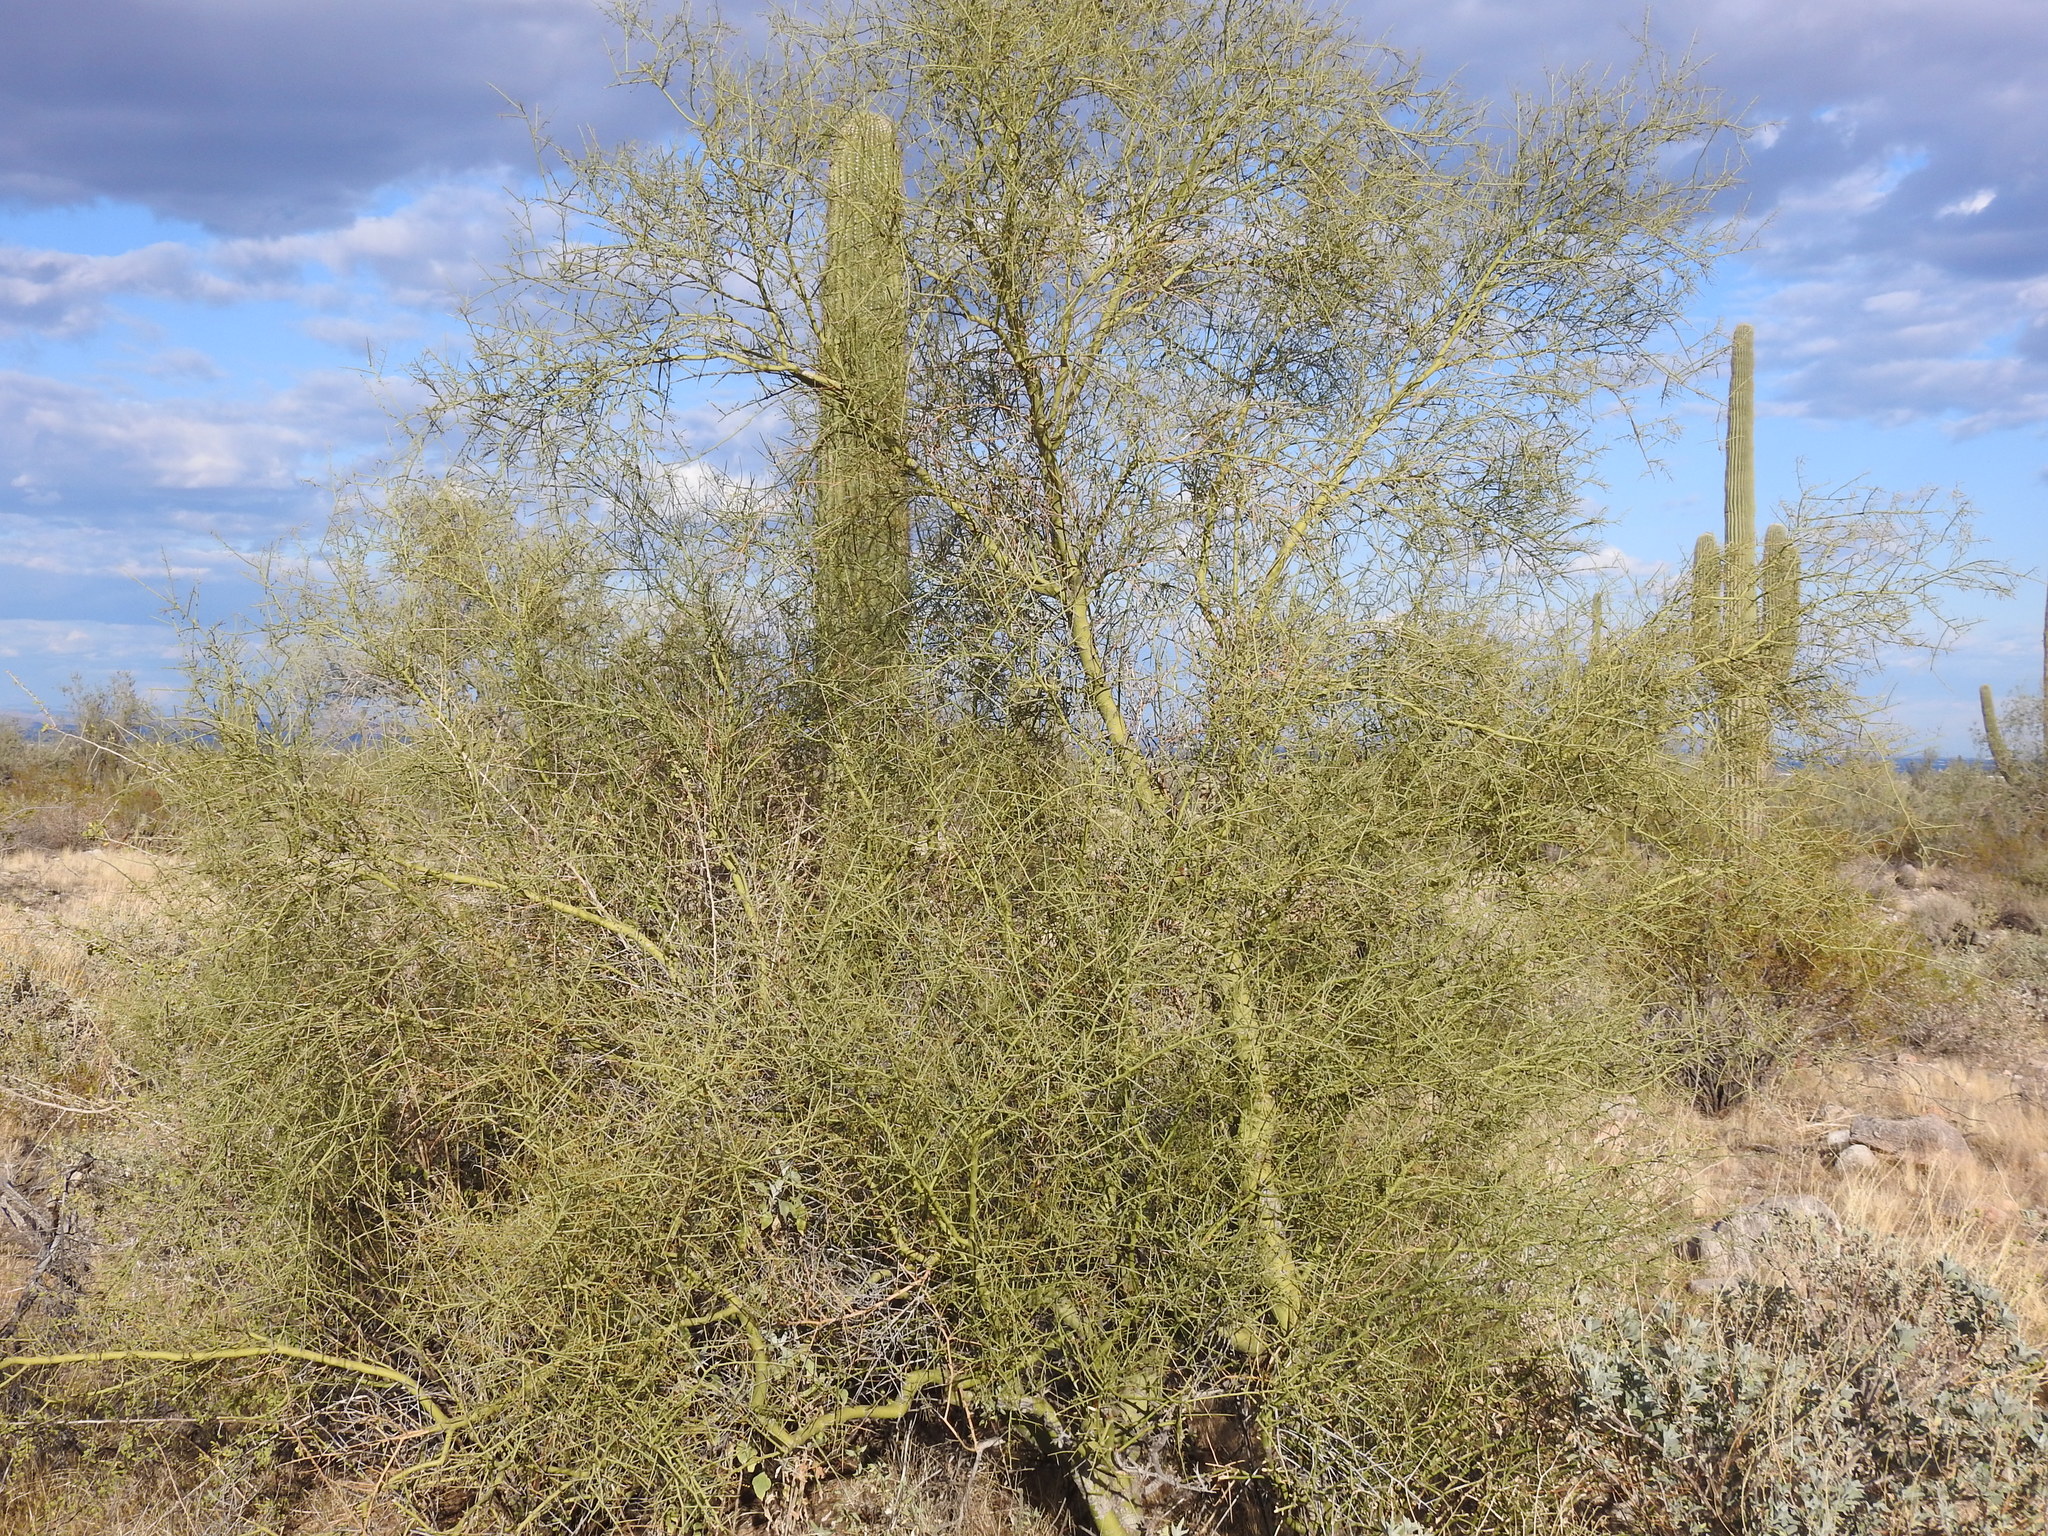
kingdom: Plantae
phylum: Tracheophyta
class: Magnoliopsida
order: Fabales
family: Fabaceae
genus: Parkinsonia
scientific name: Parkinsonia microphylla
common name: Yellow paloverde
